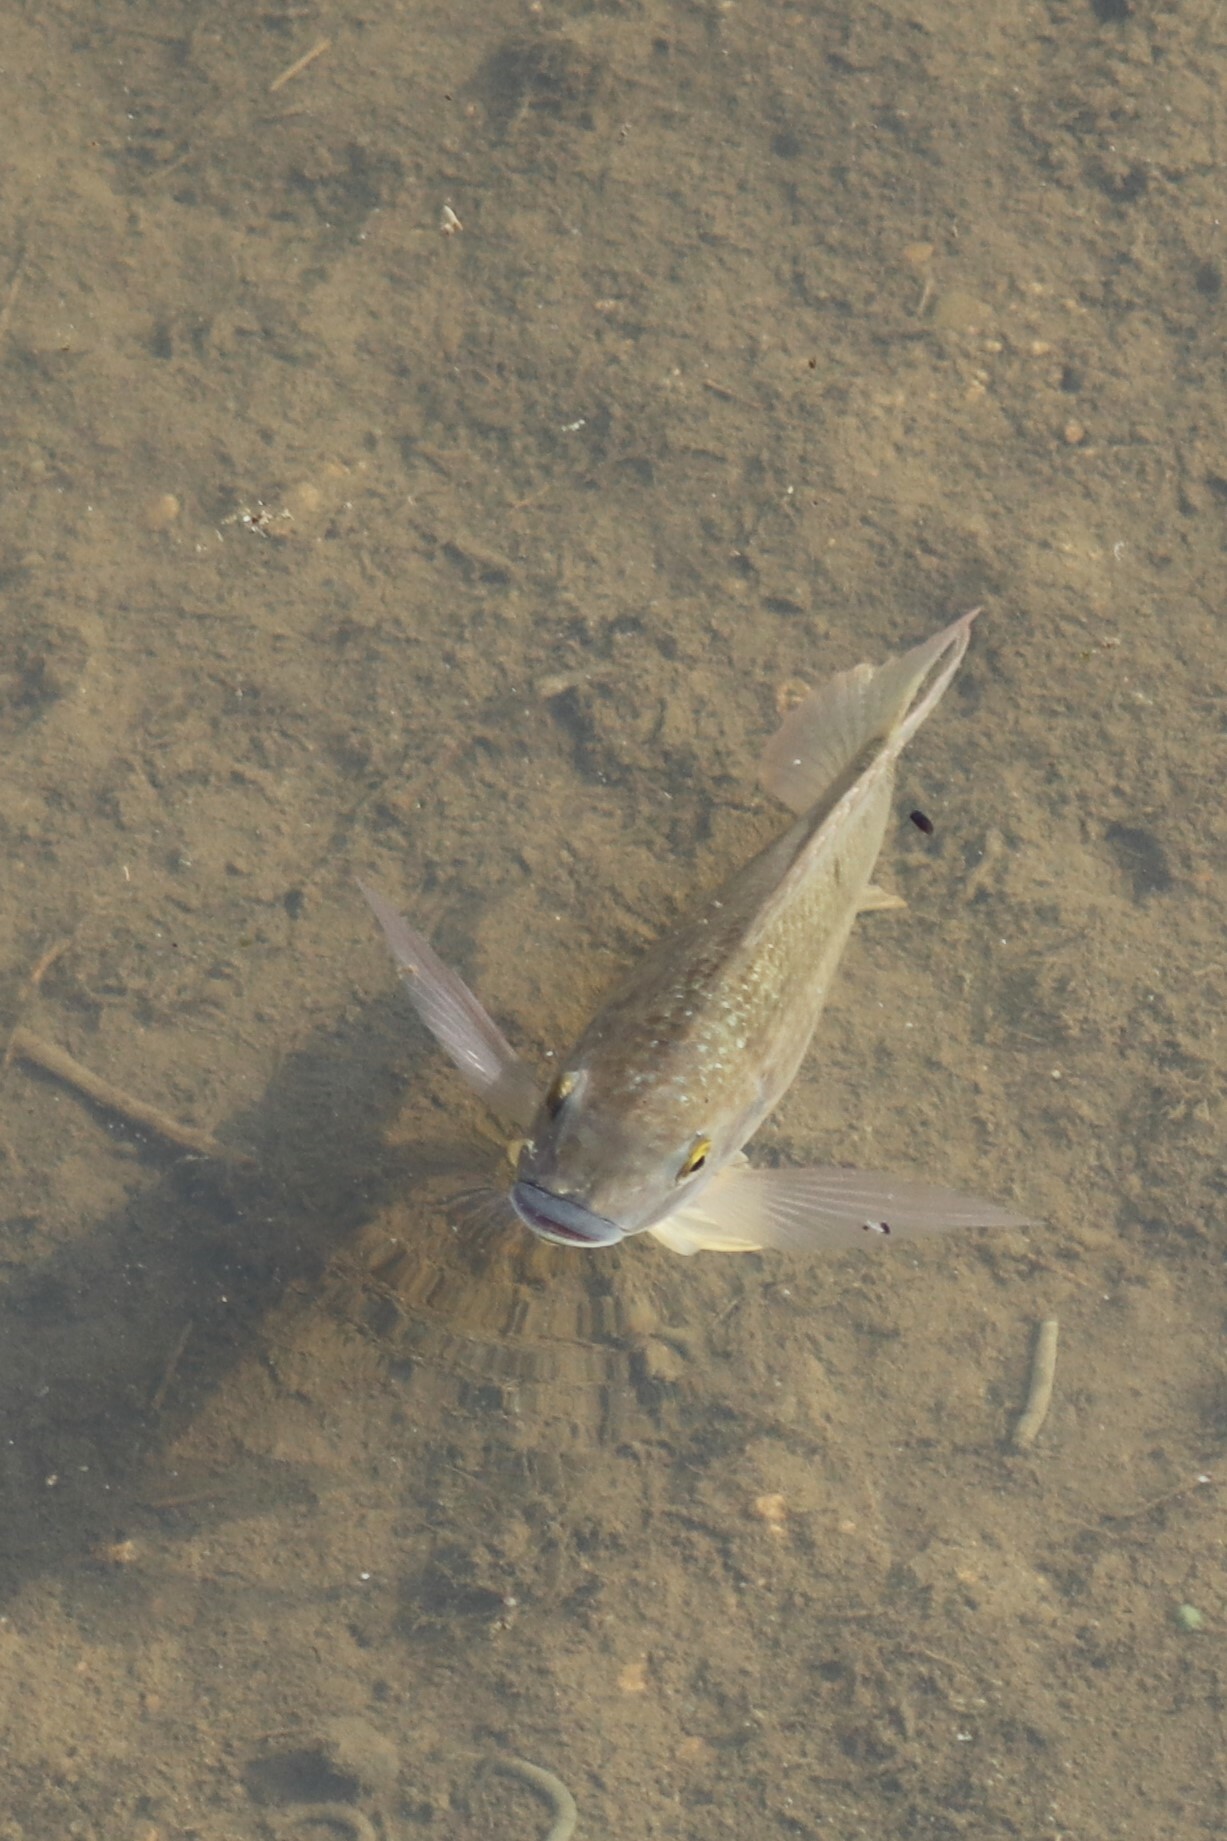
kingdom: Animalia
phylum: Chordata
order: Perciformes
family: Cichlidae
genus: Oreochromis
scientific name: Oreochromis mossambicus
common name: Mozambique tilapia
